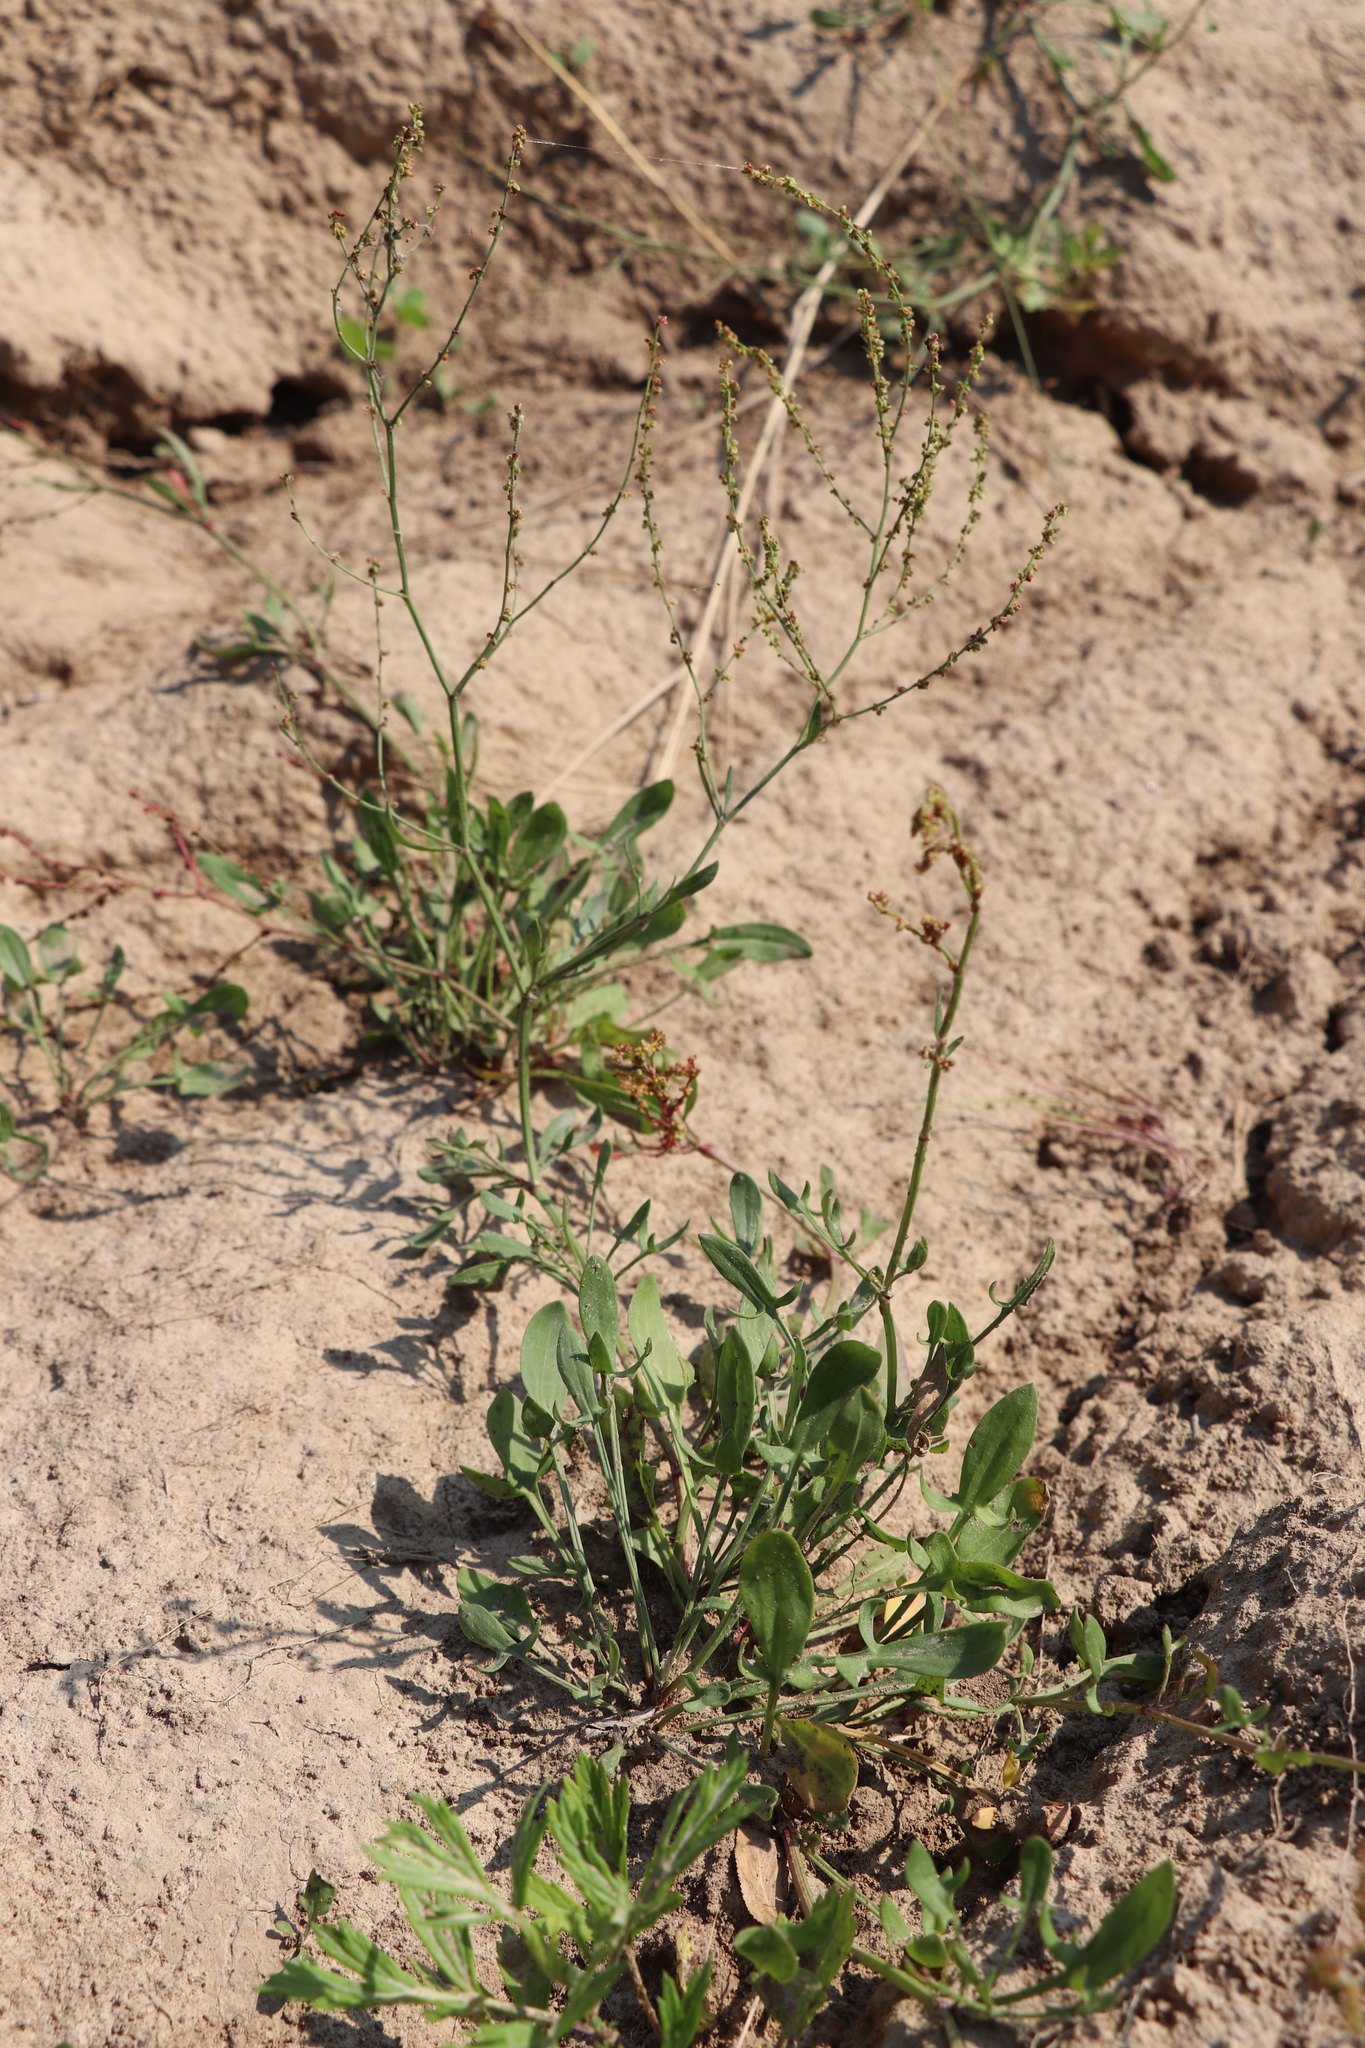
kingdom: Plantae
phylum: Tracheophyta
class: Magnoliopsida
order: Caryophyllales
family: Polygonaceae
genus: Rumex
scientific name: Rumex acetosella
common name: Common sheep sorrel
